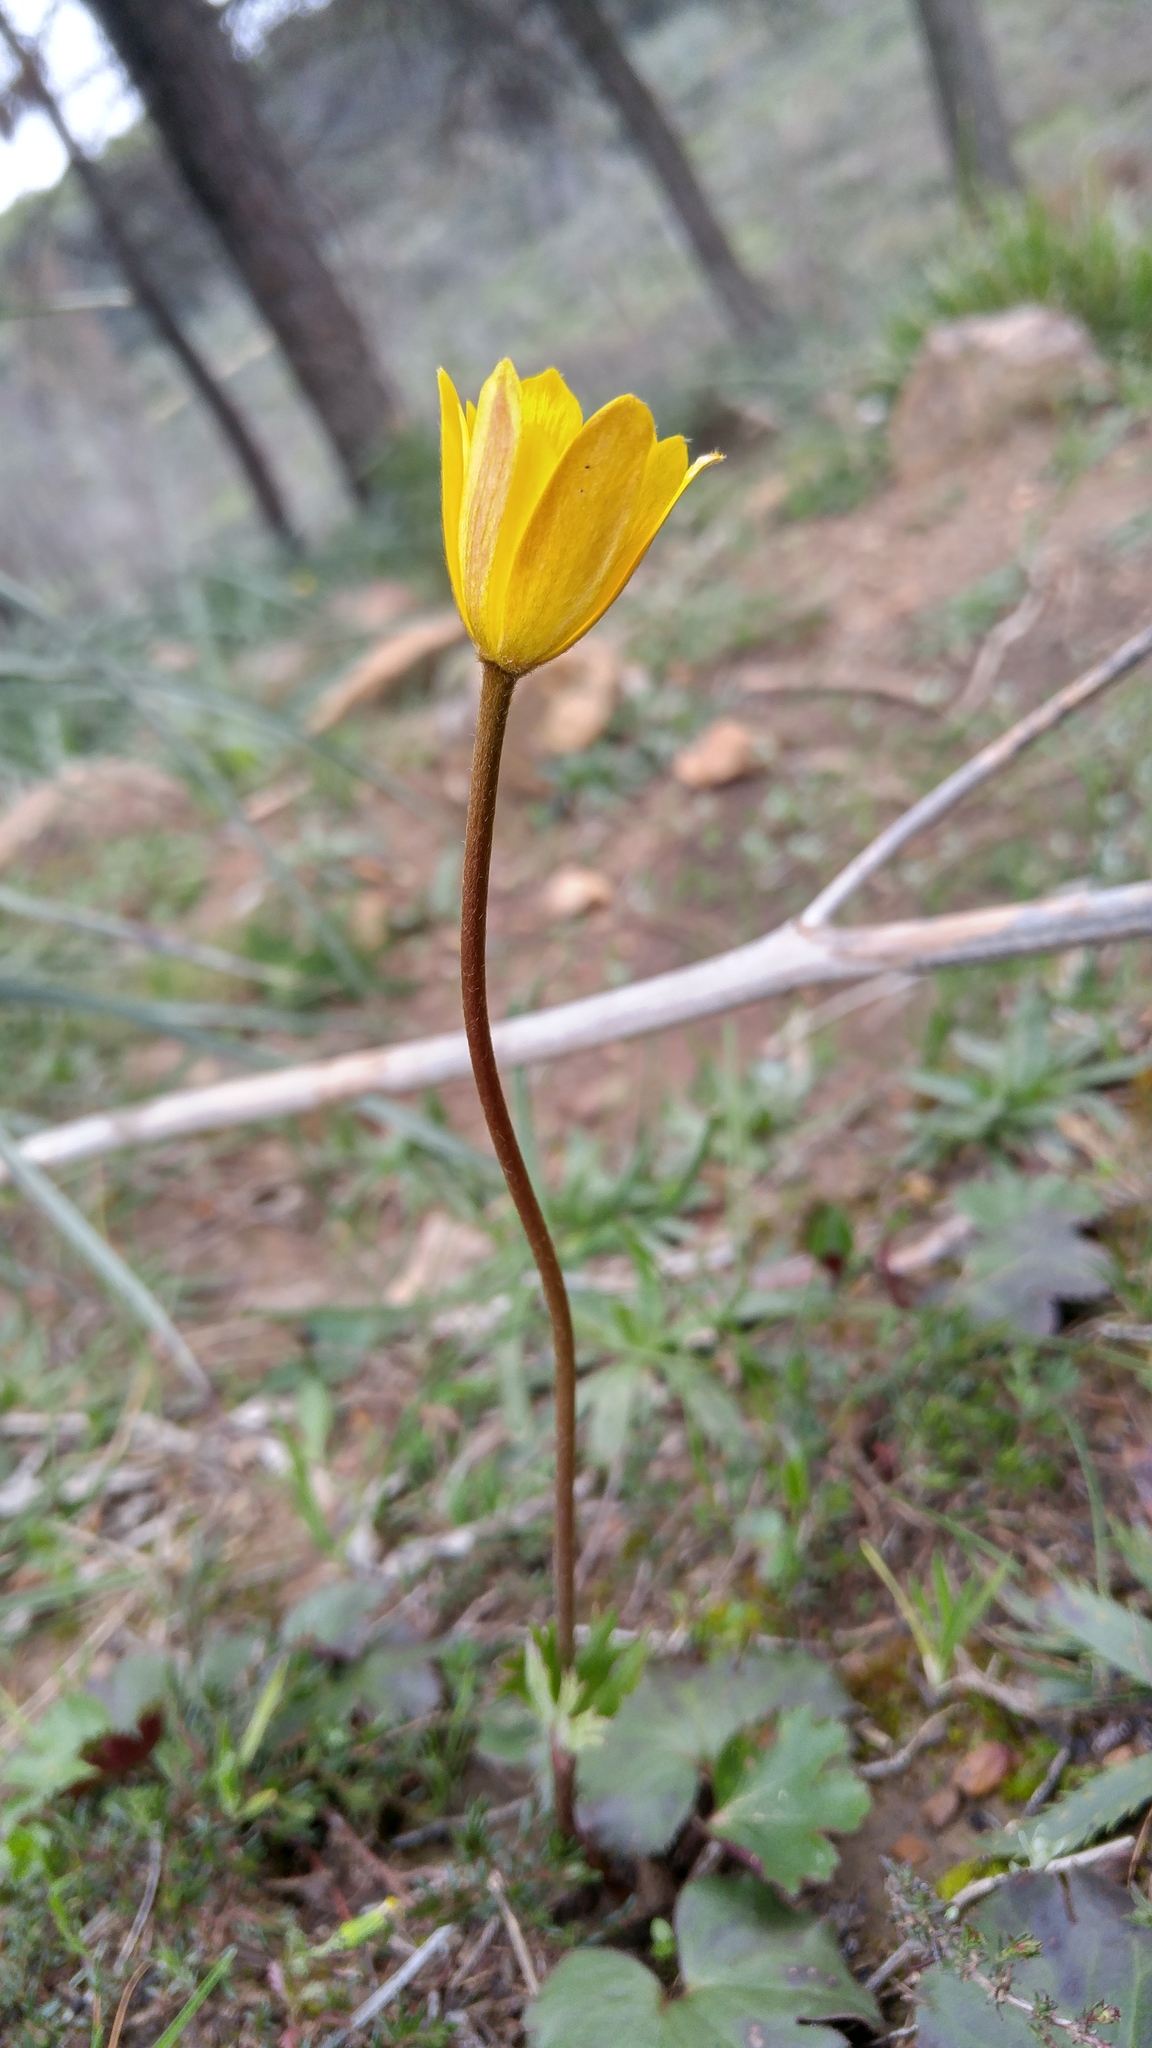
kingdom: Plantae
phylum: Tracheophyta
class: Magnoliopsida
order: Ranunculales
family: Ranunculaceae
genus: Anemone
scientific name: Anemone palmata
